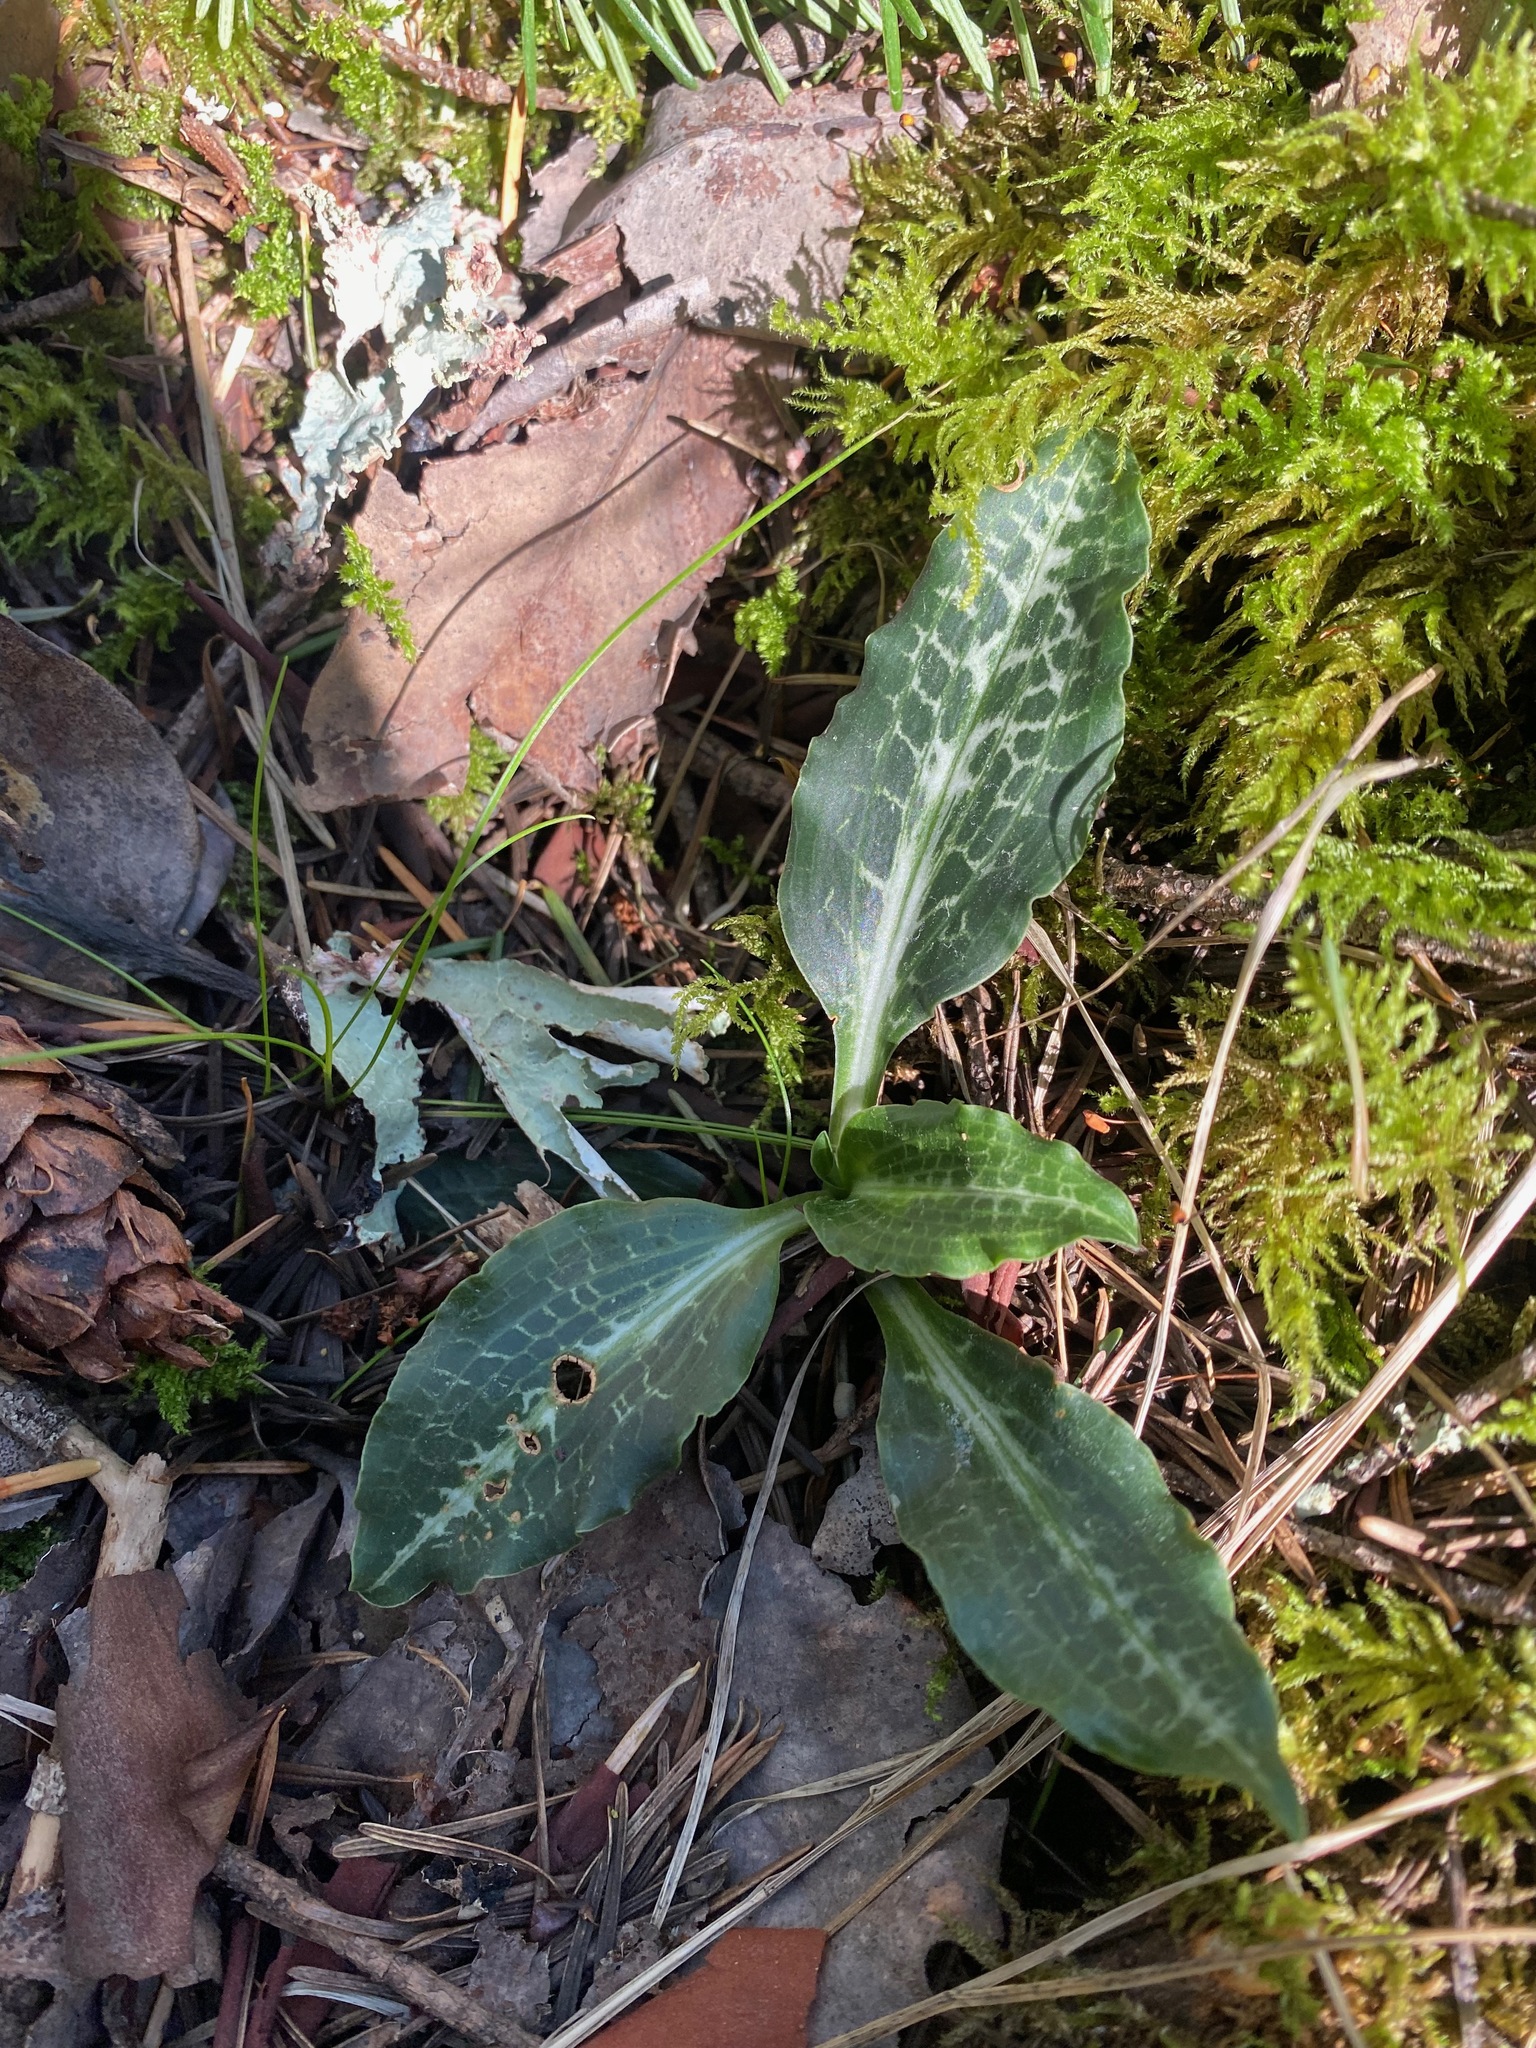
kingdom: Plantae
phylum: Tracheophyta
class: Liliopsida
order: Asparagales
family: Orchidaceae
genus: Goodyera
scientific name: Goodyera oblongifolia
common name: Giant rattlesnake-plantain
